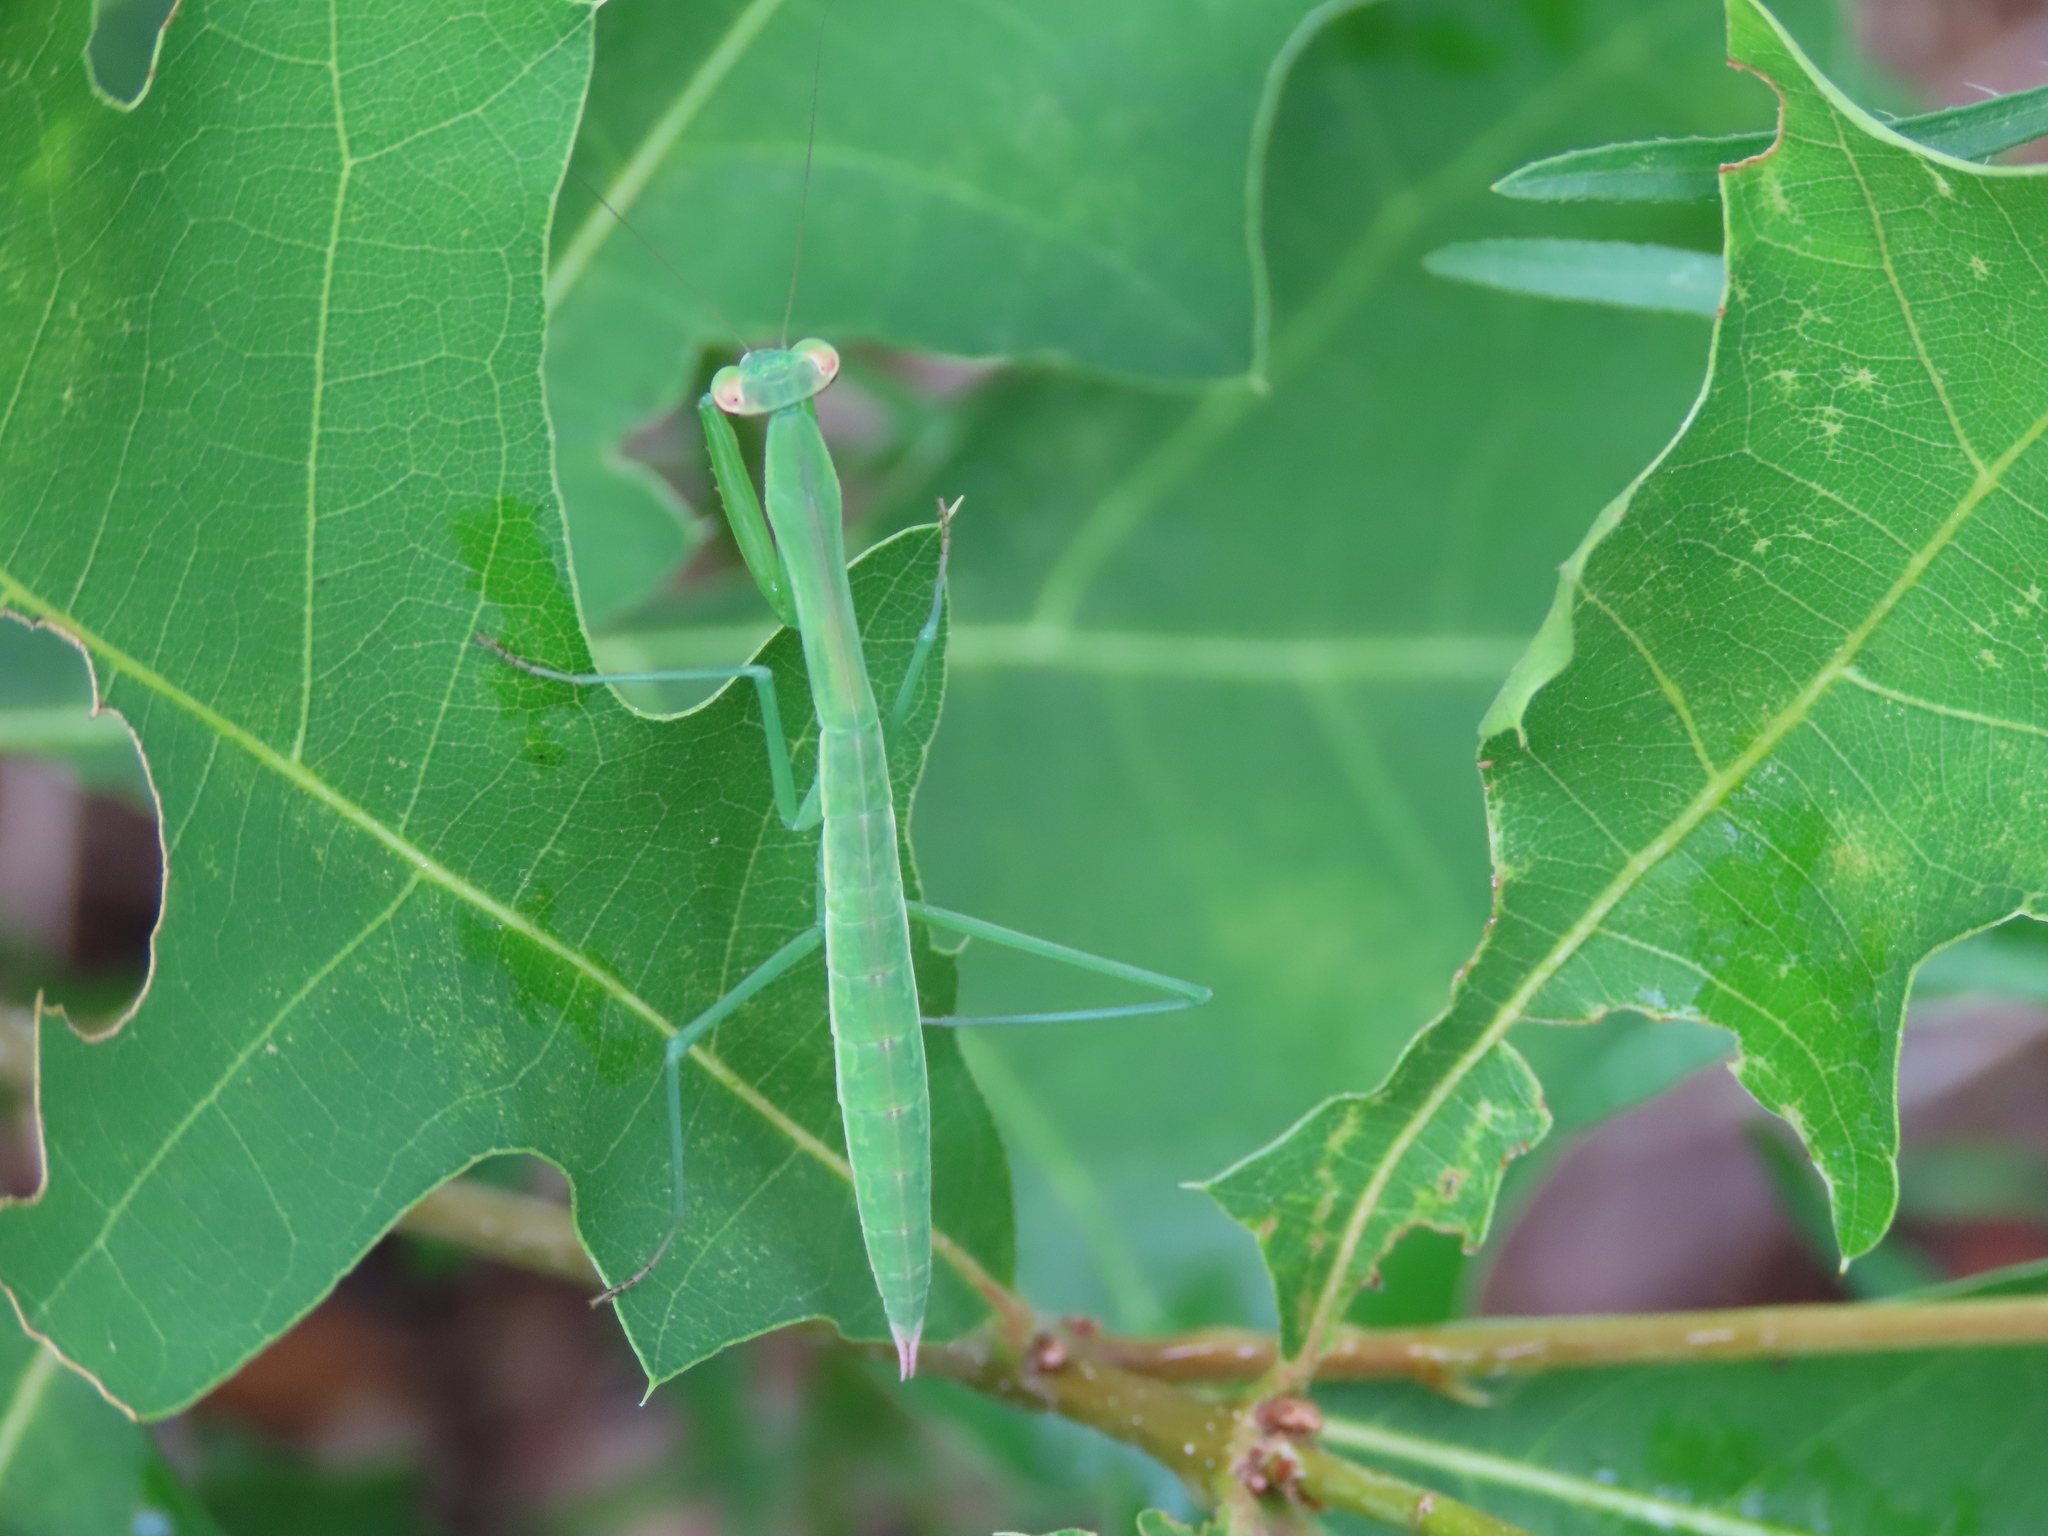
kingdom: Animalia
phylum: Arthropoda
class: Insecta
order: Mantodea
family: Mantidae
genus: Tenodera
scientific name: Tenodera sinensis
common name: Chinese mantis
